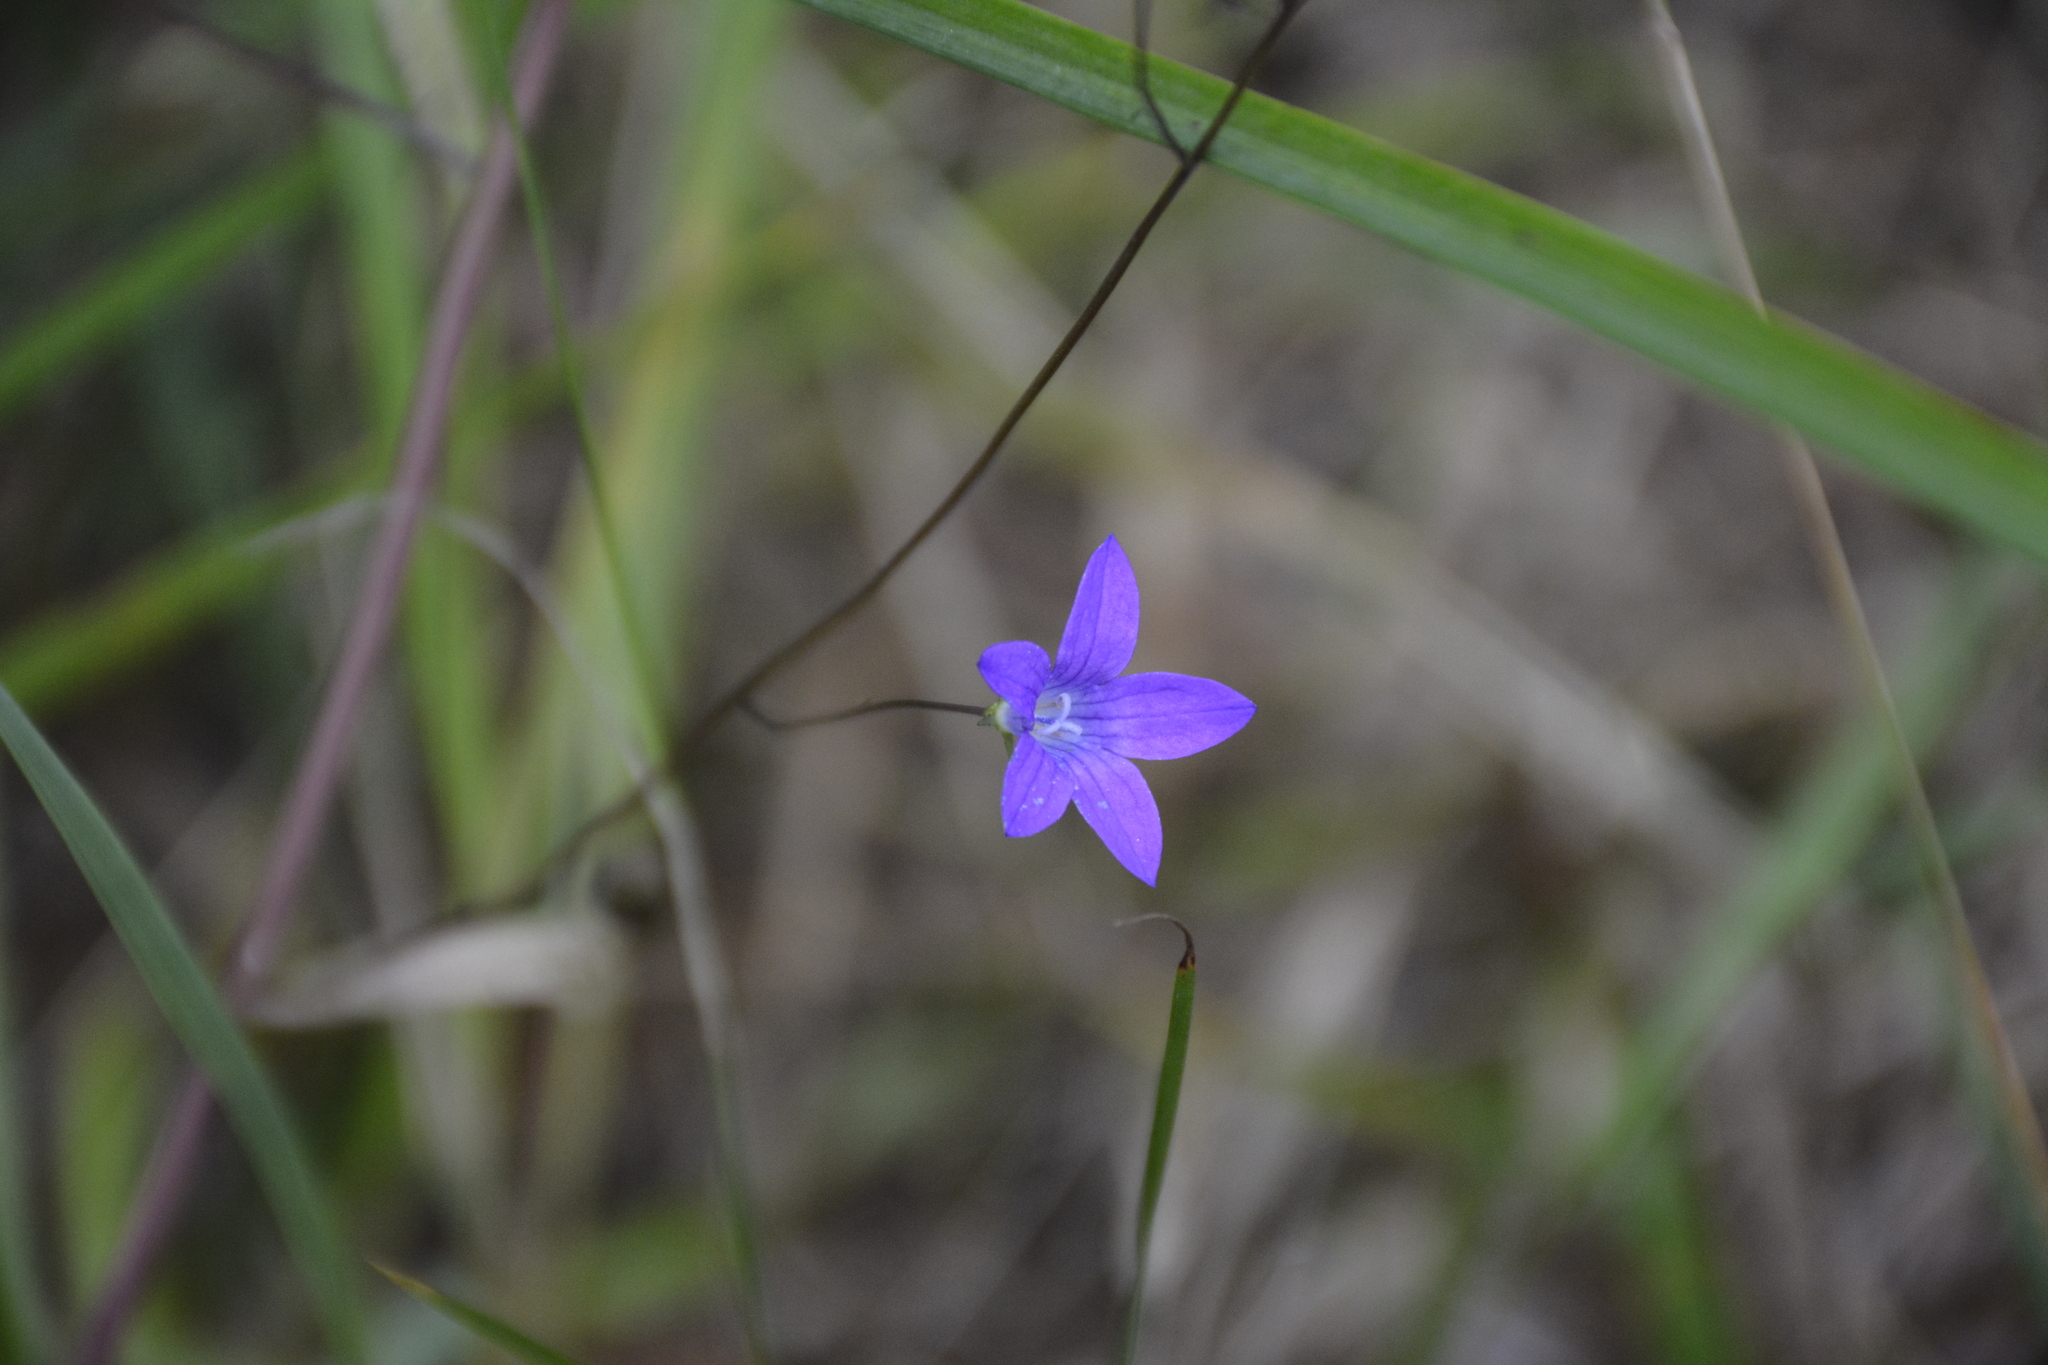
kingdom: Plantae
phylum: Tracheophyta
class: Magnoliopsida
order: Asterales
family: Campanulaceae
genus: Campanula
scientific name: Campanula patula
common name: Spreading bellflower
